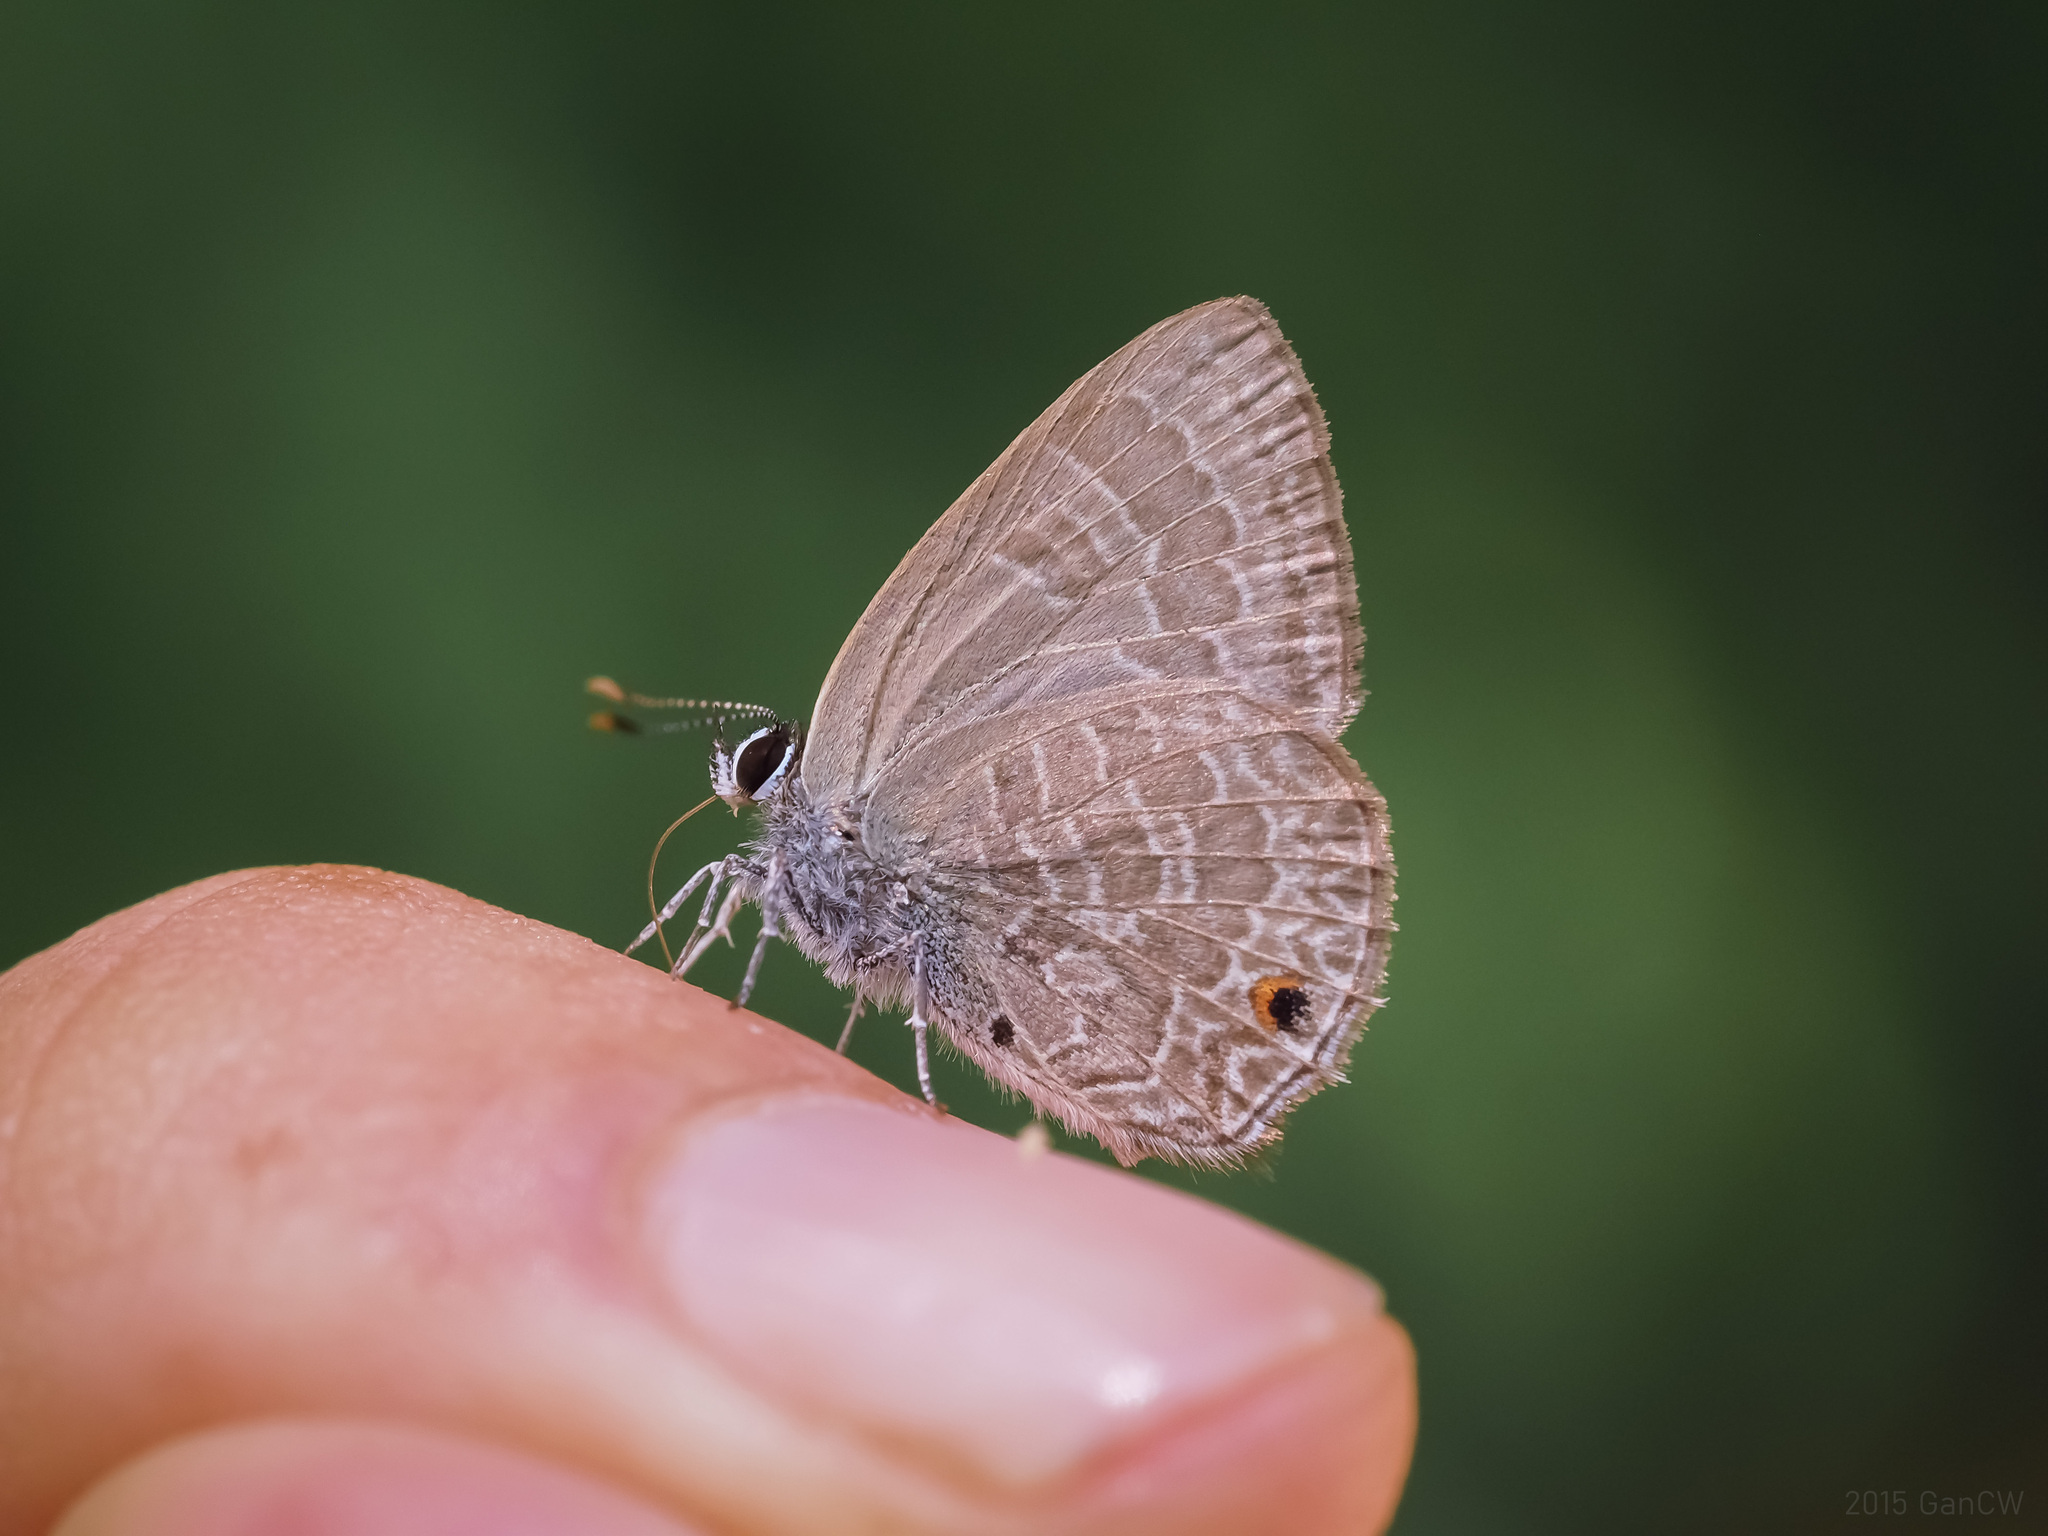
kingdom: Animalia
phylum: Arthropoda
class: Insecta
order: Lepidoptera
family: Lycaenidae
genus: Anthene
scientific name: Anthene emolus
